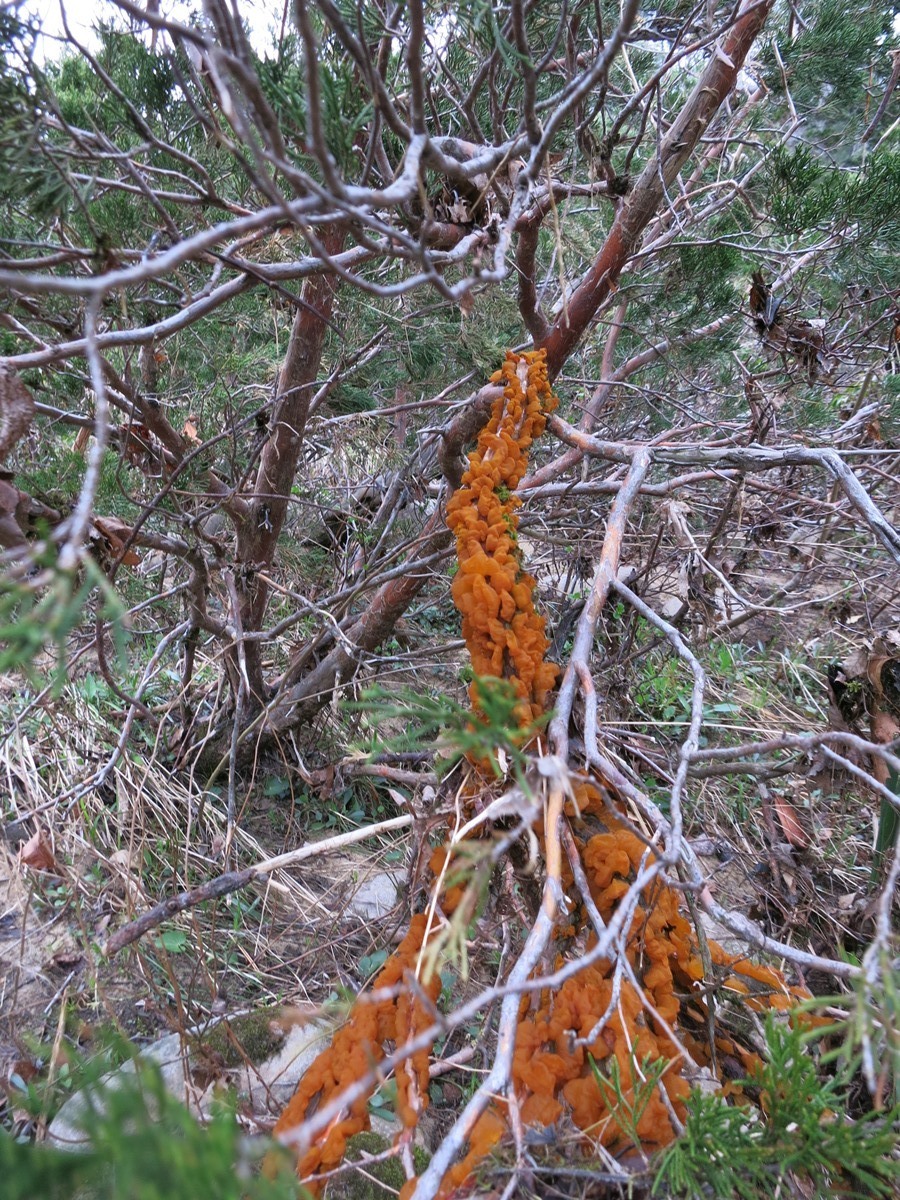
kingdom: Fungi
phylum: Basidiomycota
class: Pucciniomycetes
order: Pucciniales
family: Gymnosporangiaceae
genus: Gymnosporangium
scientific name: Gymnosporangium juniperi-virginianae
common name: Juniper-apple rust
